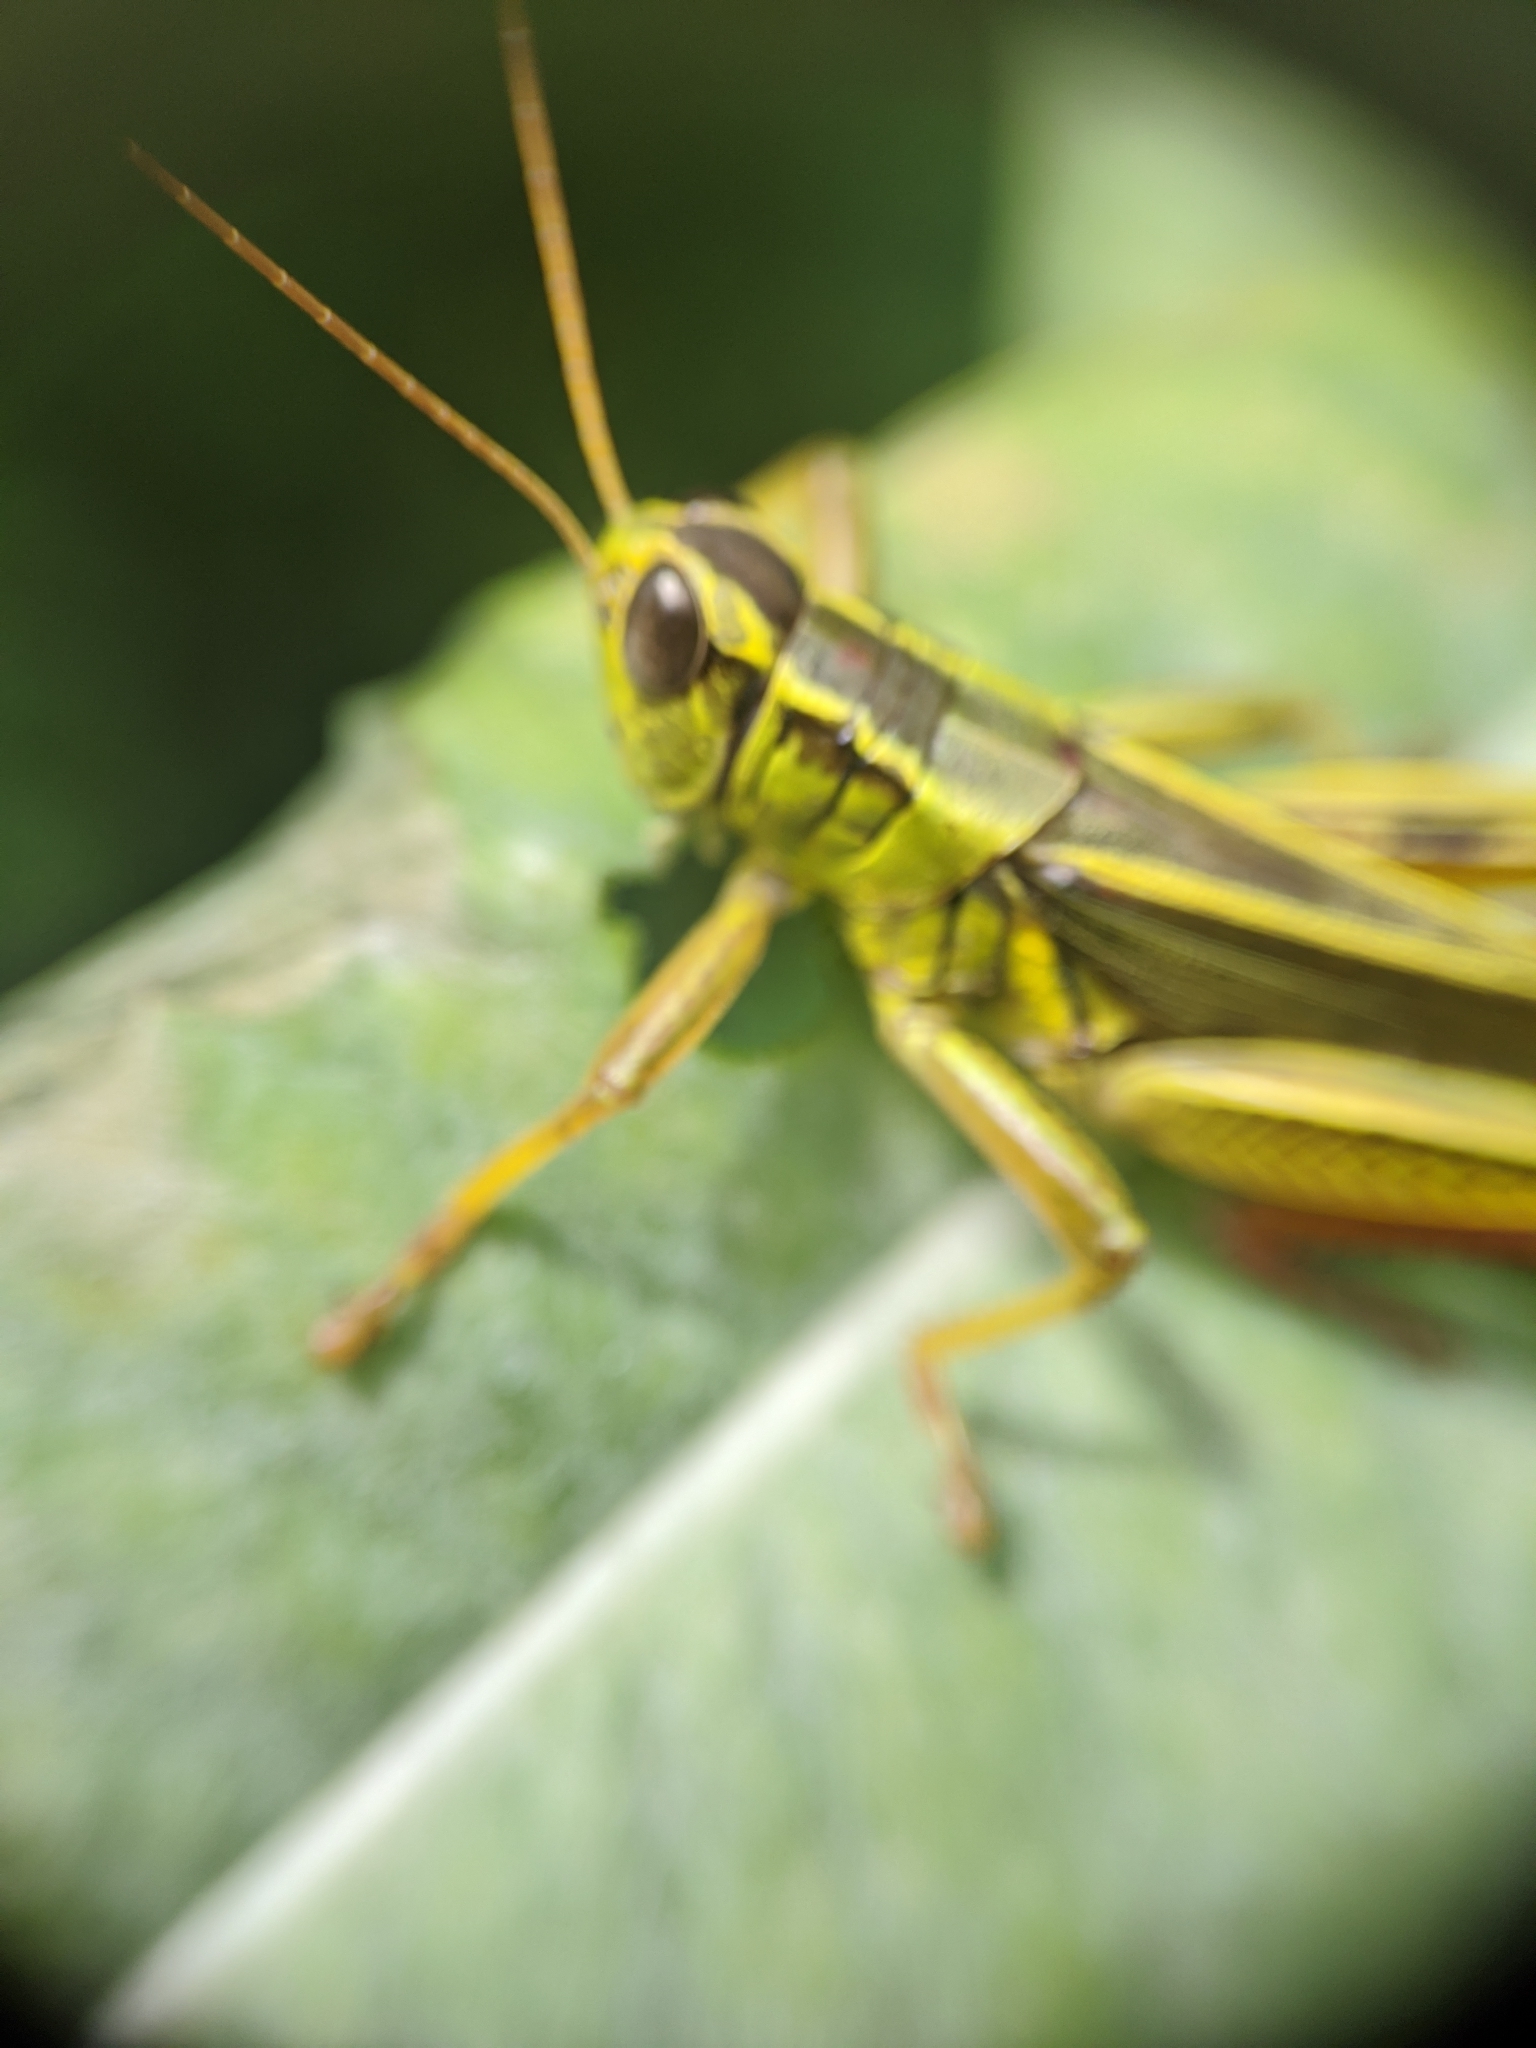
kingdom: Animalia
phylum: Arthropoda
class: Insecta
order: Orthoptera
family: Acrididae
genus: Melanoplus
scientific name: Melanoplus bivittatus
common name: Two-striped grasshopper
